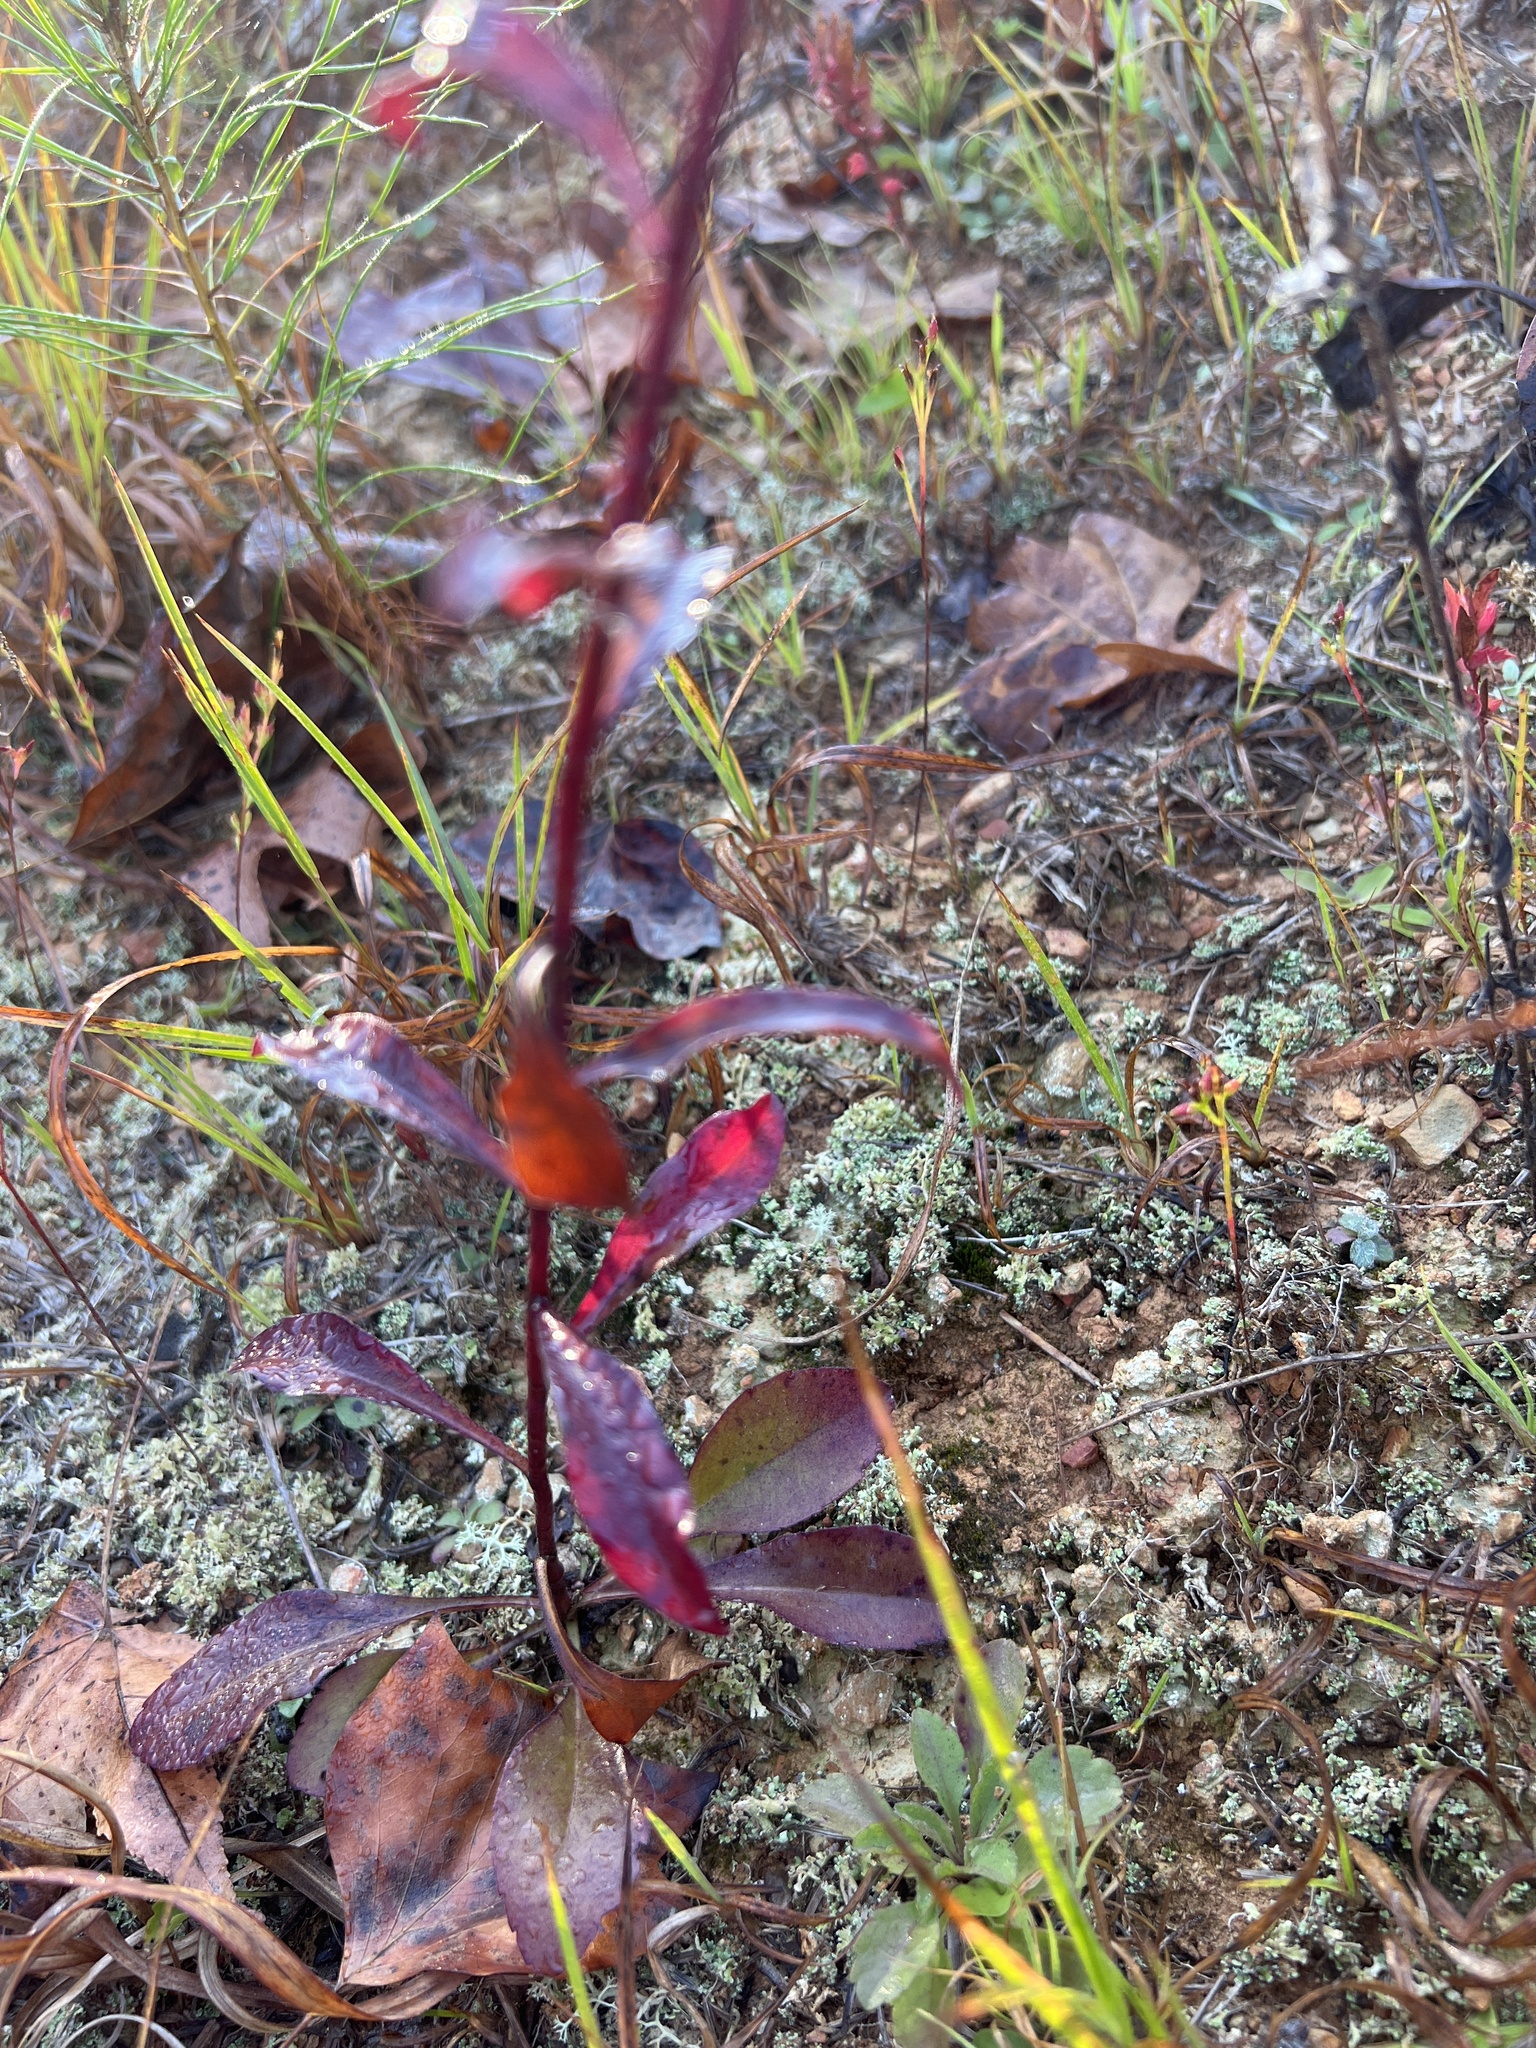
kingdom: Plantae
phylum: Tracheophyta
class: Magnoliopsida
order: Asterales
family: Asteraceae
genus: Solidago
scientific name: Solidago erecta
